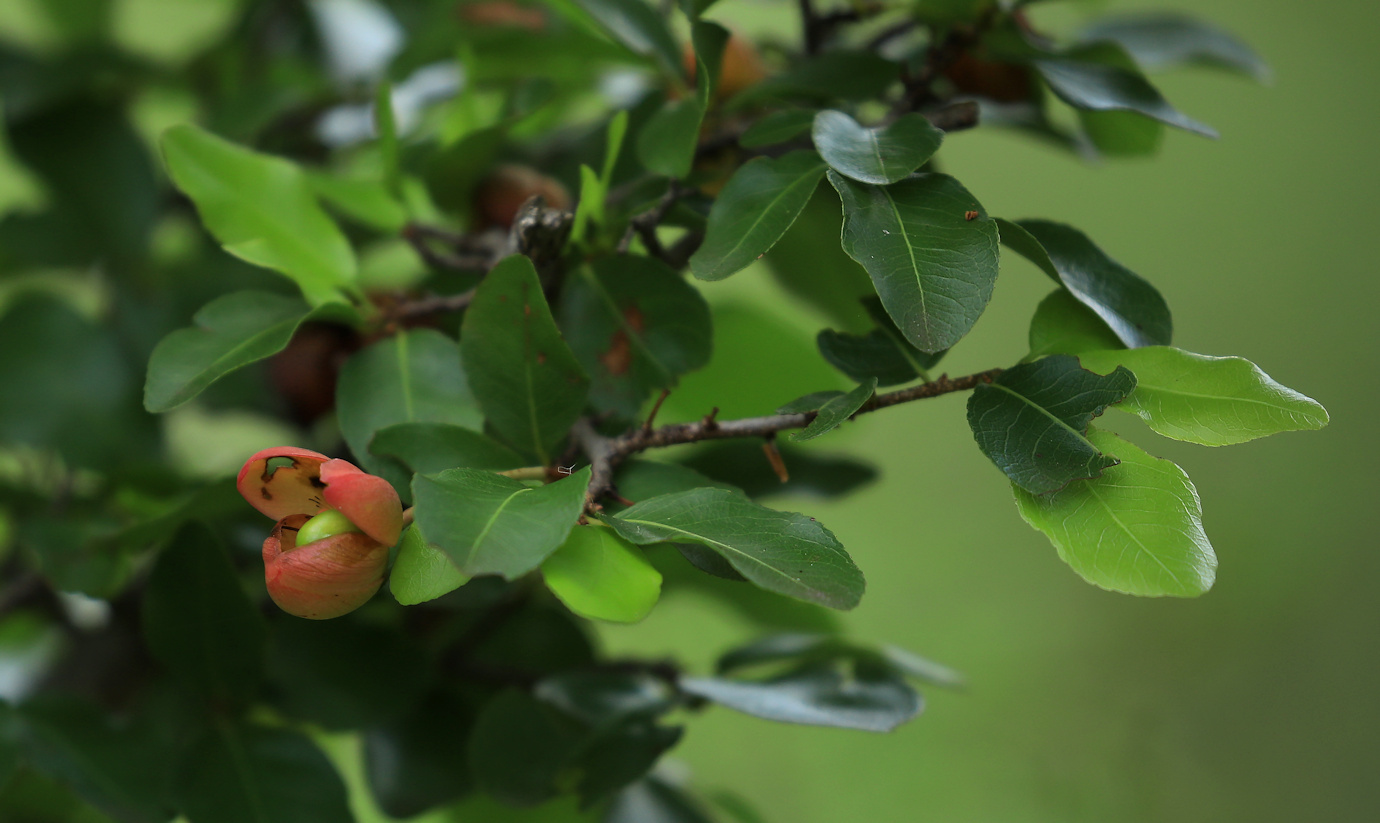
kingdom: Plantae
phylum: Tracheophyta
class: Magnoliopsida
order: Malpighiales
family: Ochnaceae
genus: Ochna
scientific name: Ochna inermis
